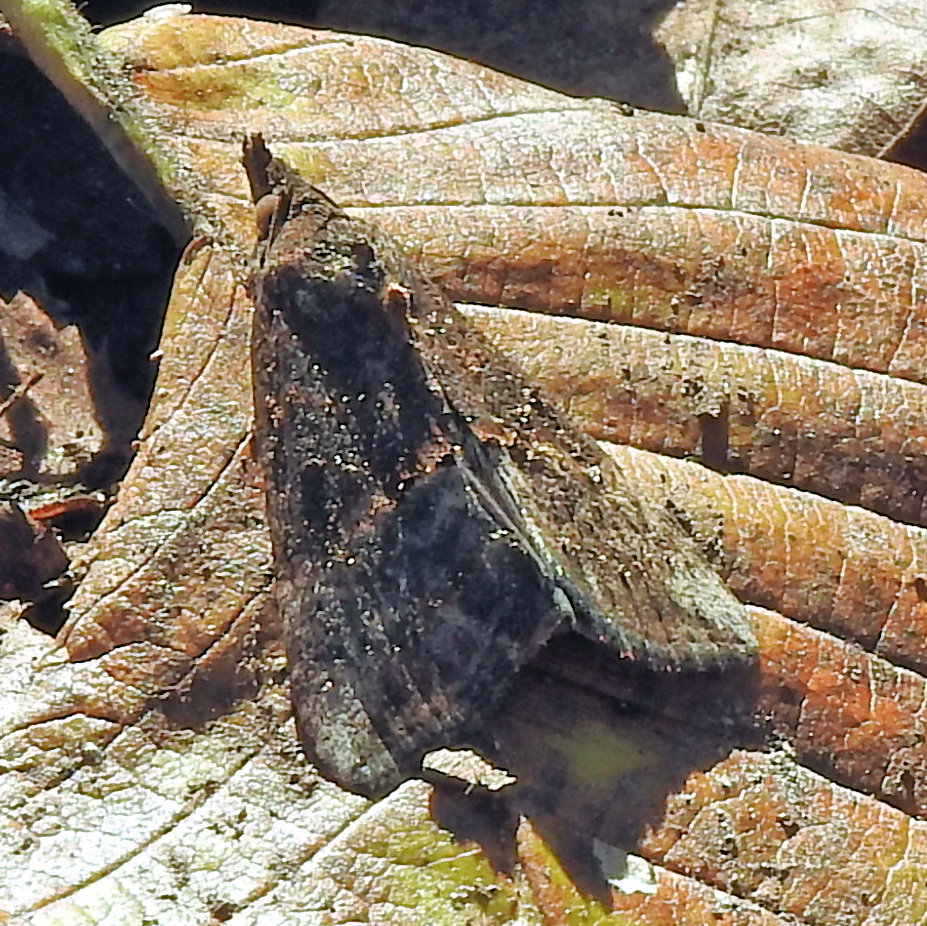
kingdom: Animalia
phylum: Arthropoda
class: Insecta
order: Lepidoptera
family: Erebidae
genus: Hypena
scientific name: Hypena scabra
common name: Green cloverworm
